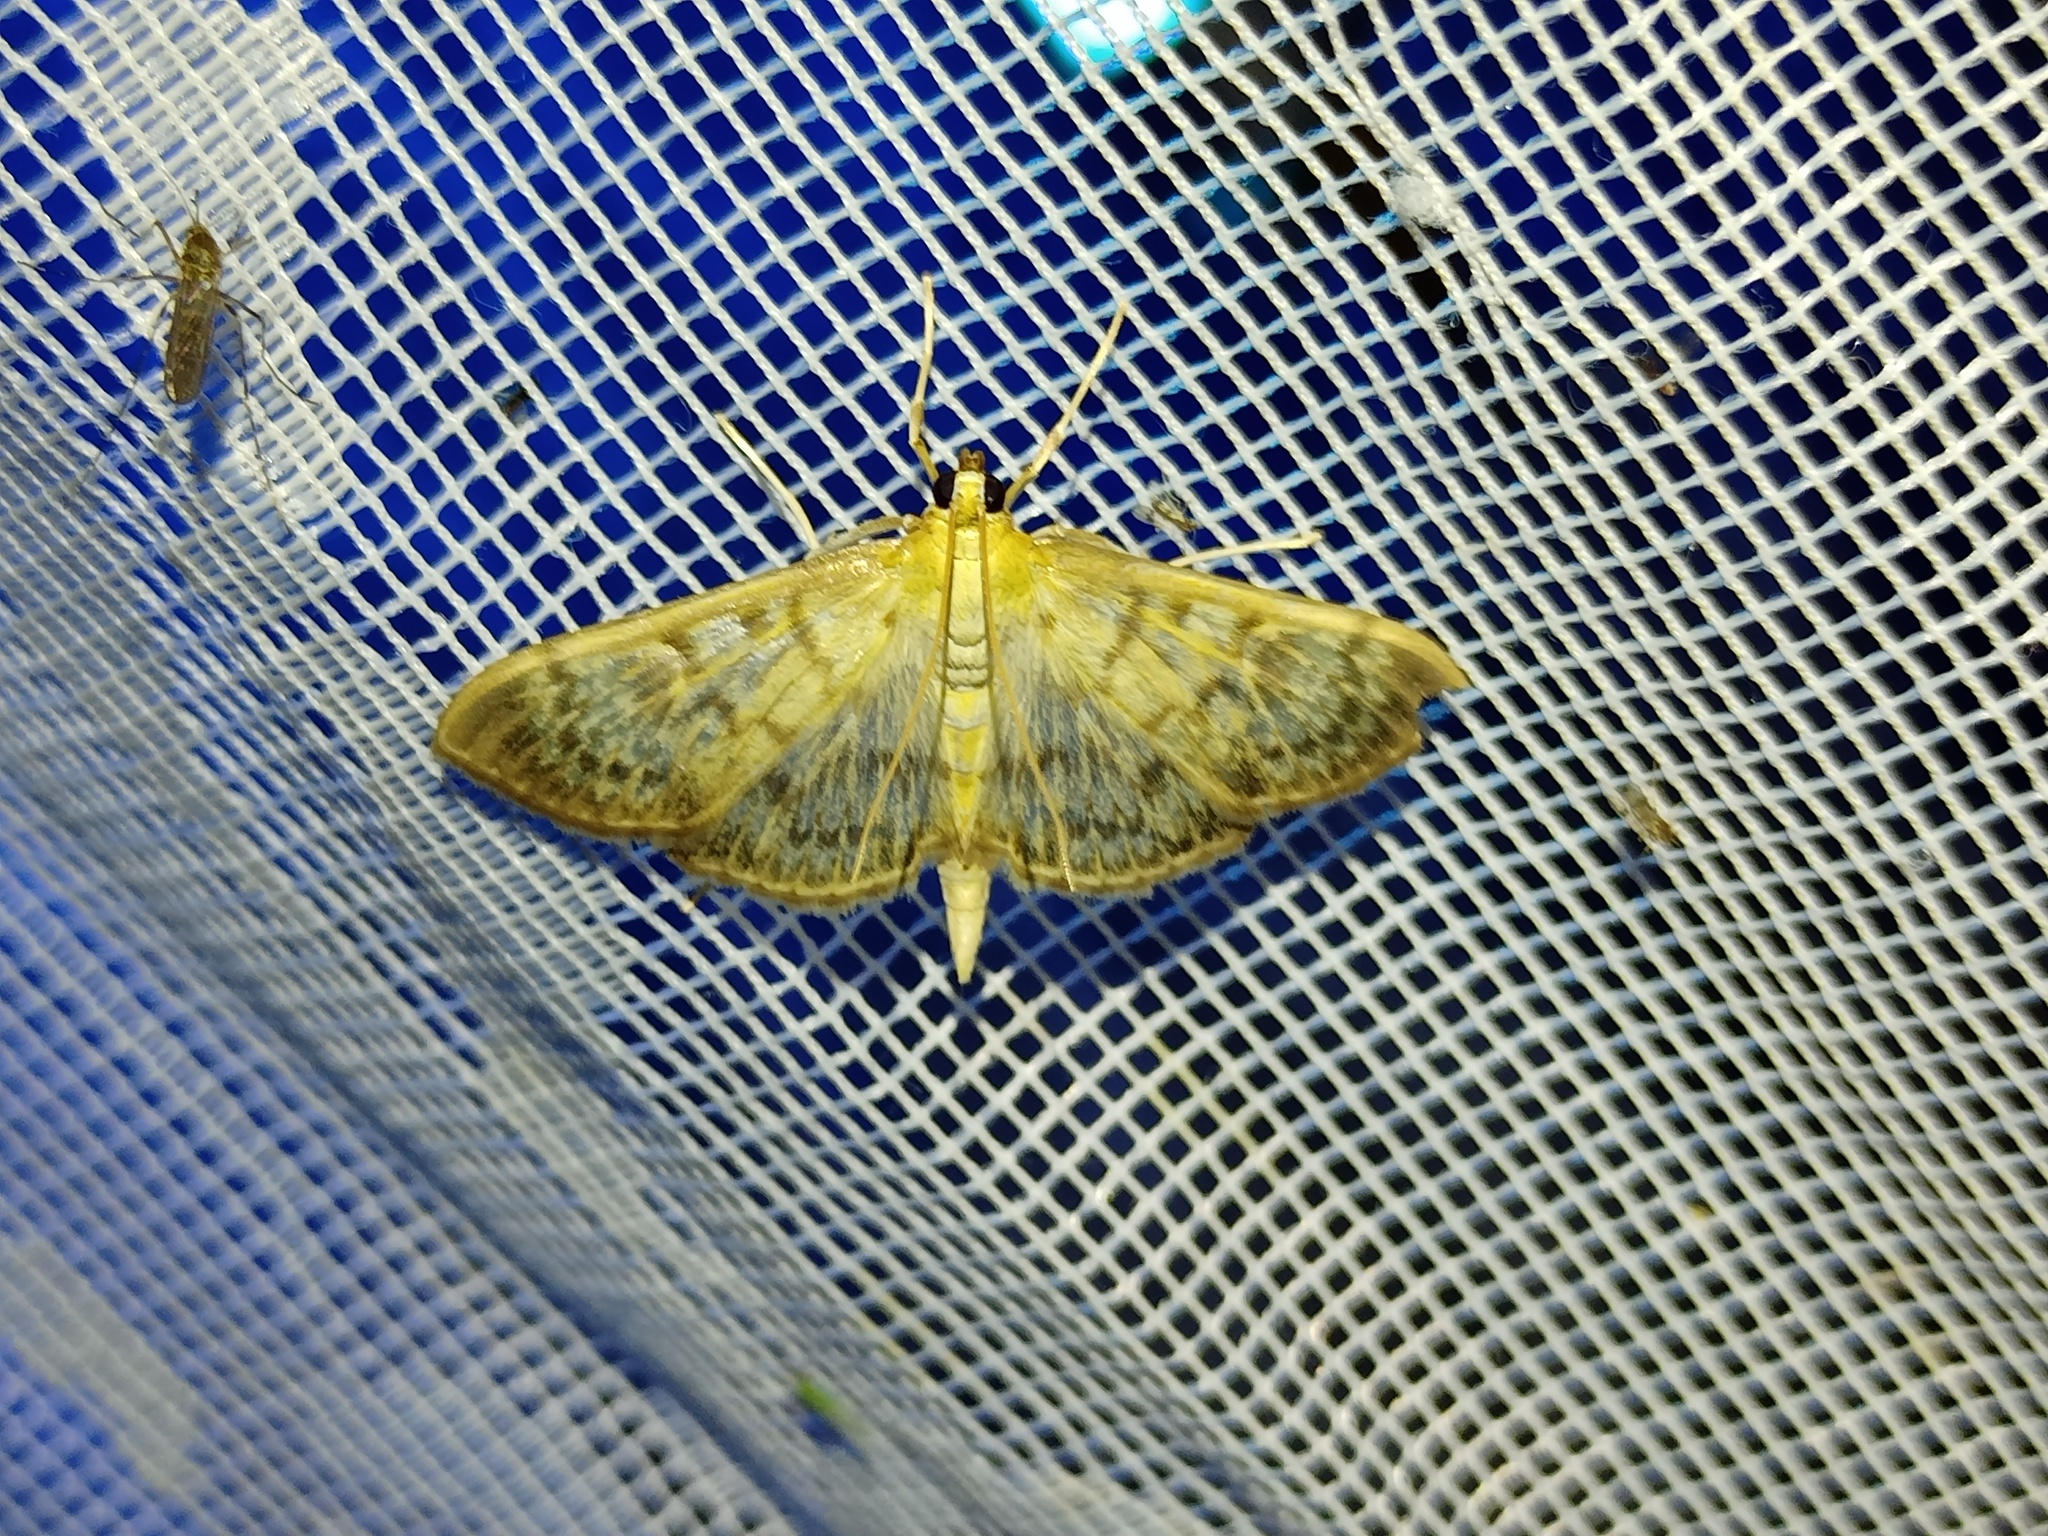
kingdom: Animalia
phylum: Arthropoda
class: Insecta
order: Lepidoptera
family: Crambidae
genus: Patania
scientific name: Patania ruralis
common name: Mother of pearl
